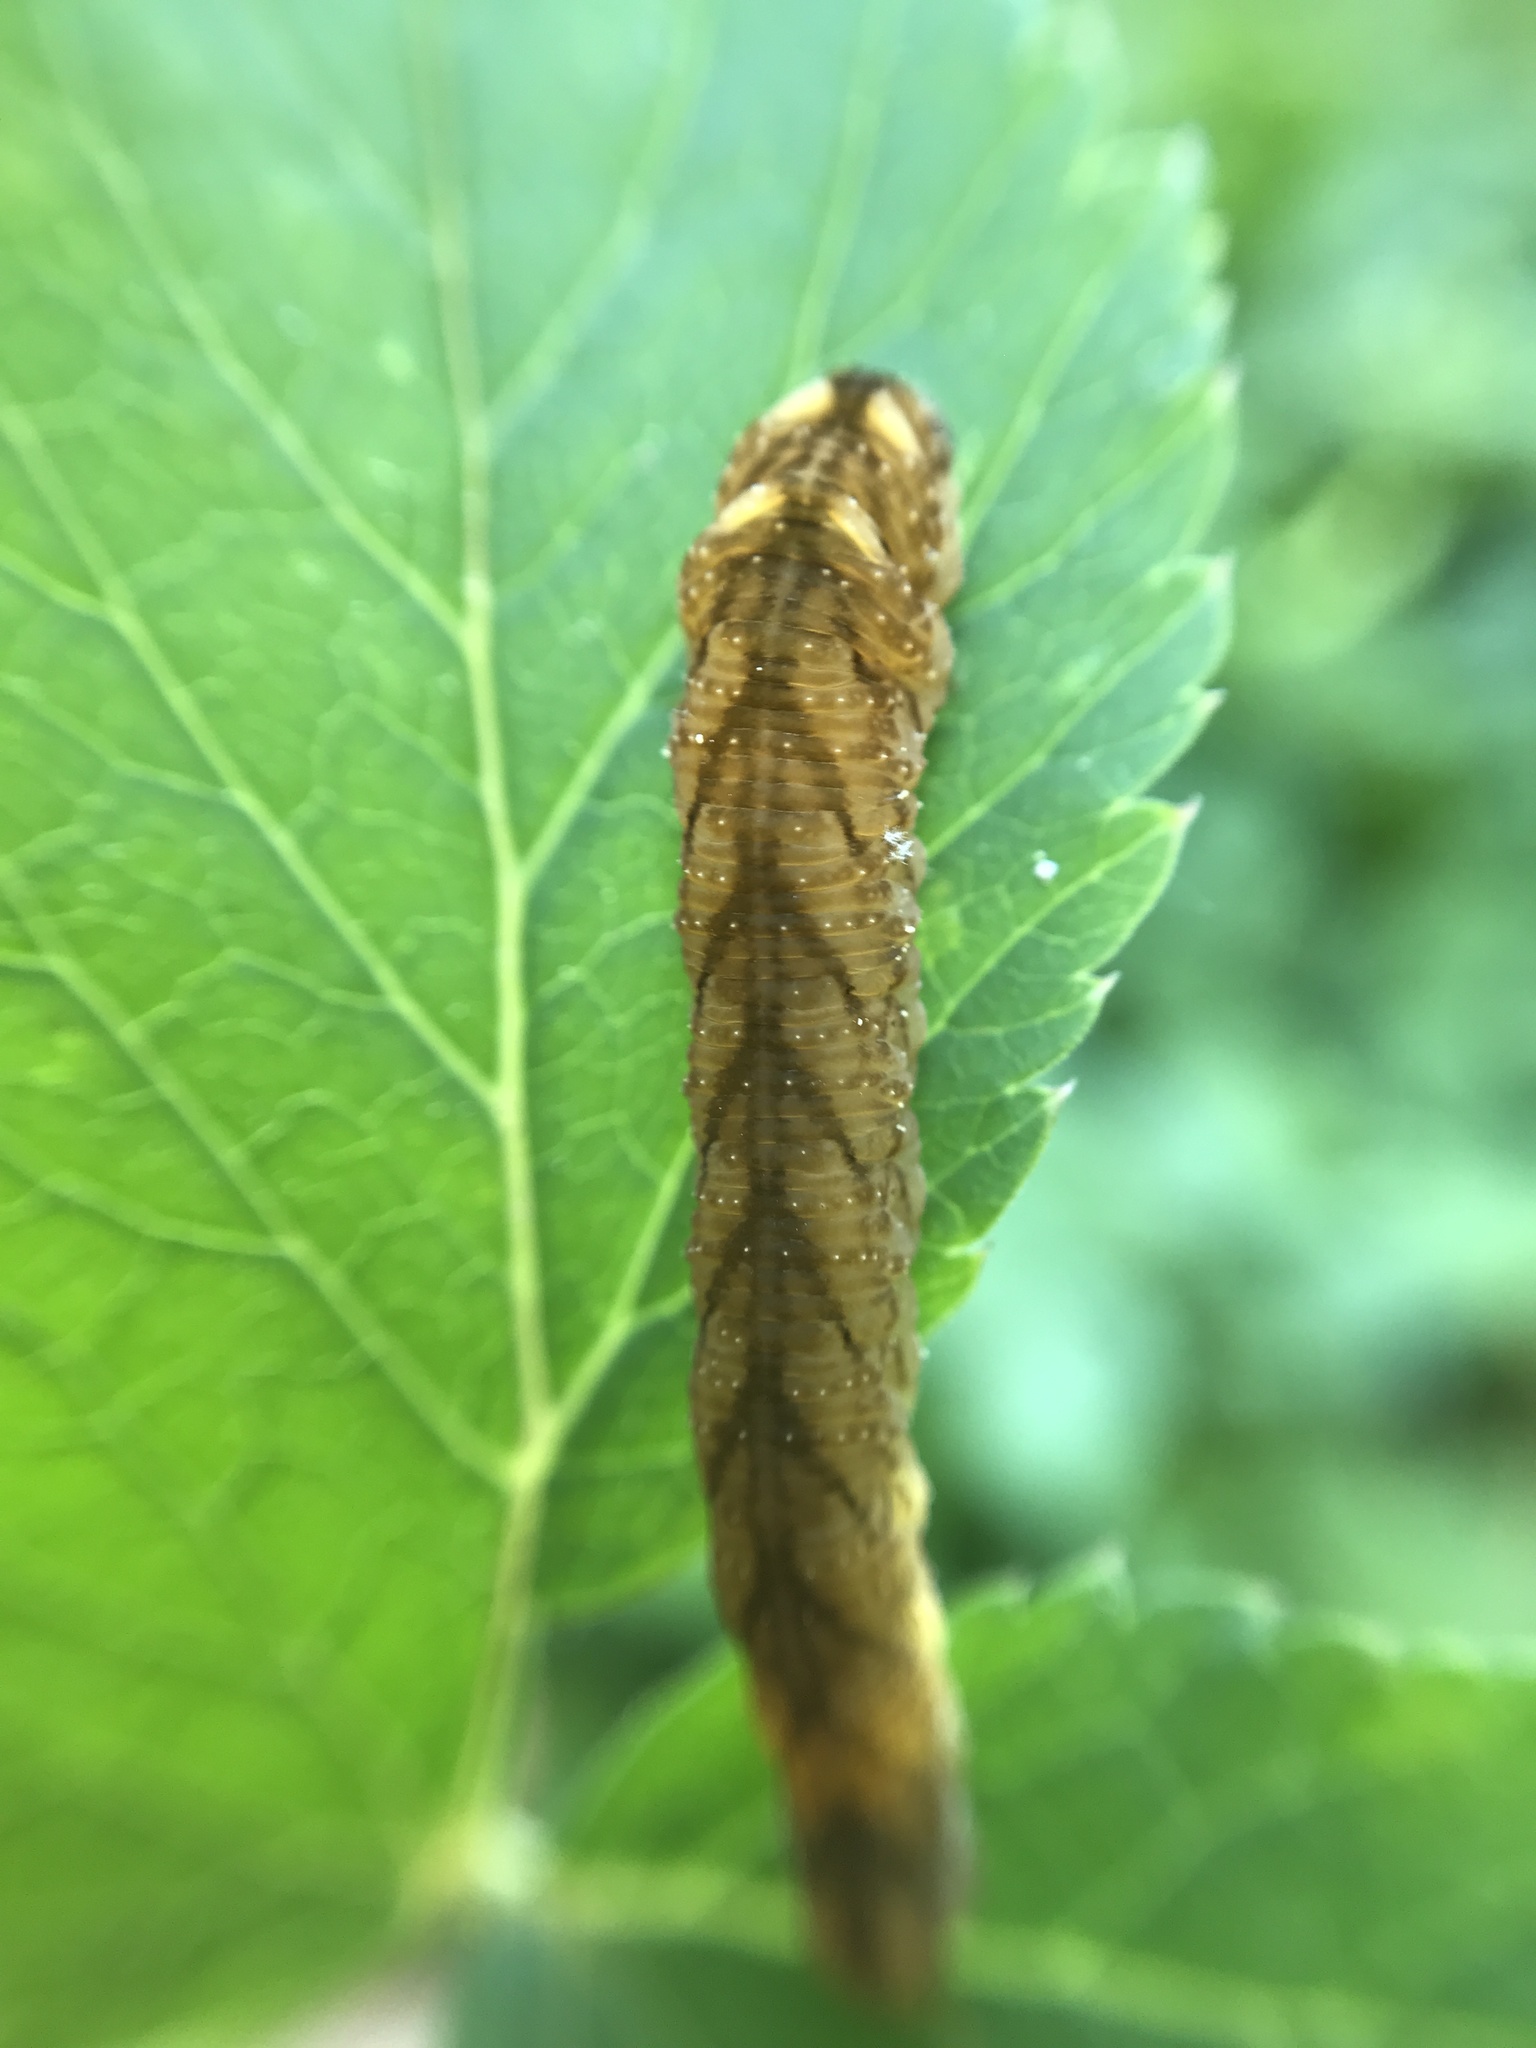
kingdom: Animalia
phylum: Arthropoda
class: Insecta
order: Hymenoptera
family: Tenthredinidae
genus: Tenthredo
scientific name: Tenthredo campestris
